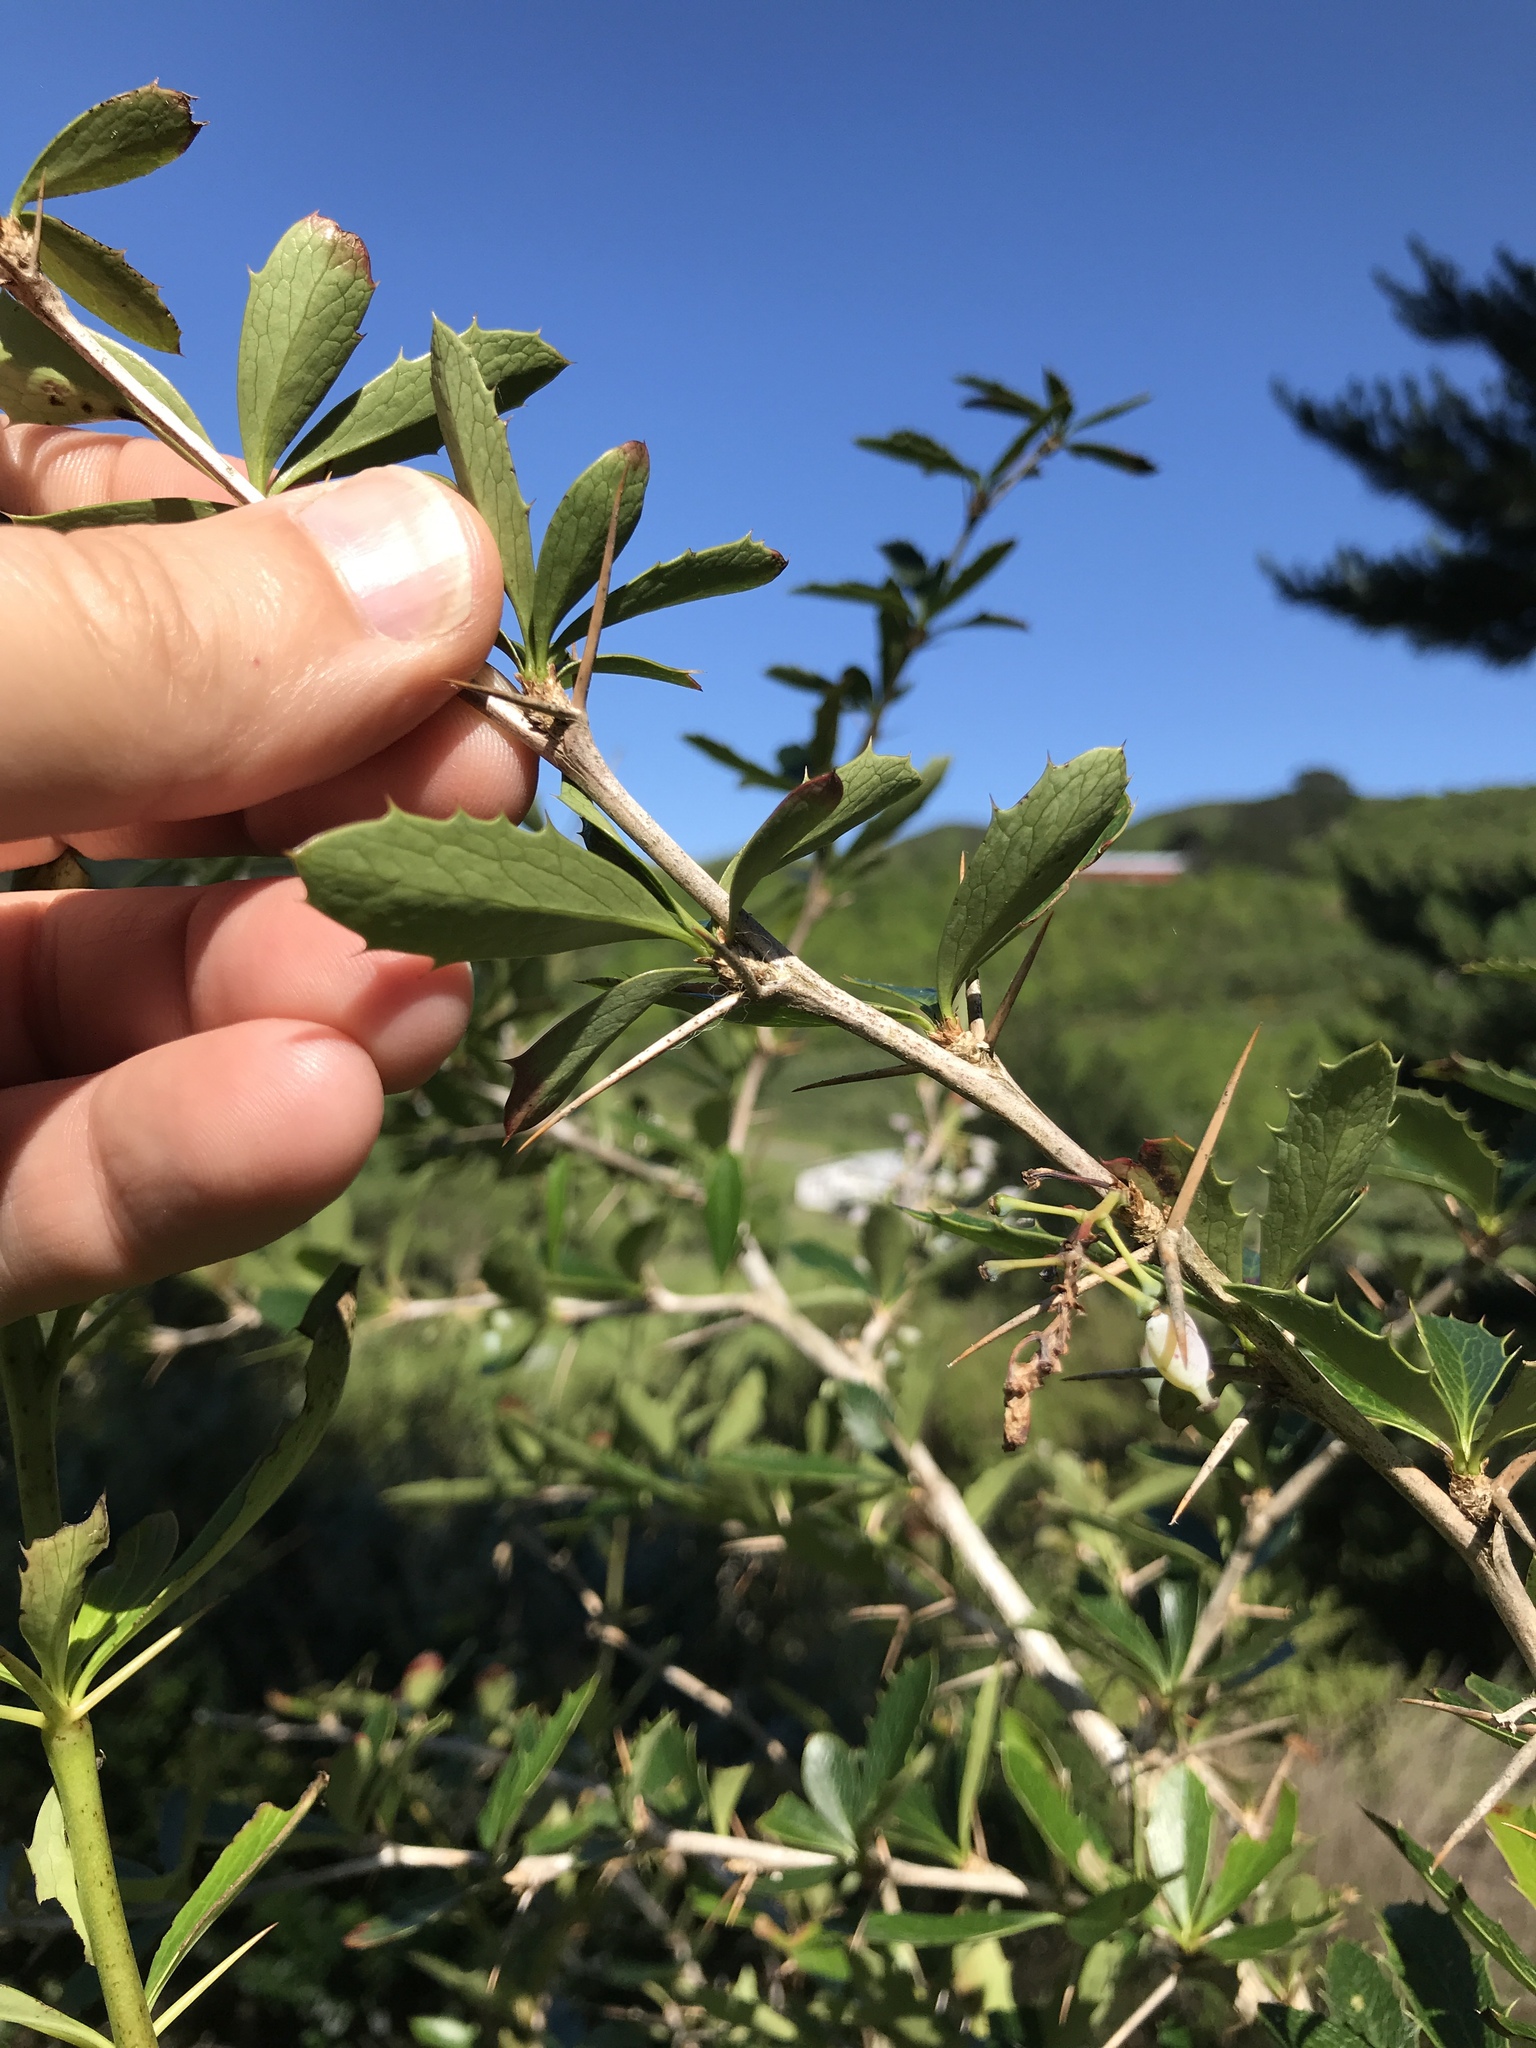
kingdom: Plantae
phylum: Tracheophyta
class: Magnoliopsida
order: Ranunculales
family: Berberidaceae
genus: Berberis
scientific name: Berberis glaucocarpa
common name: Great barberry
